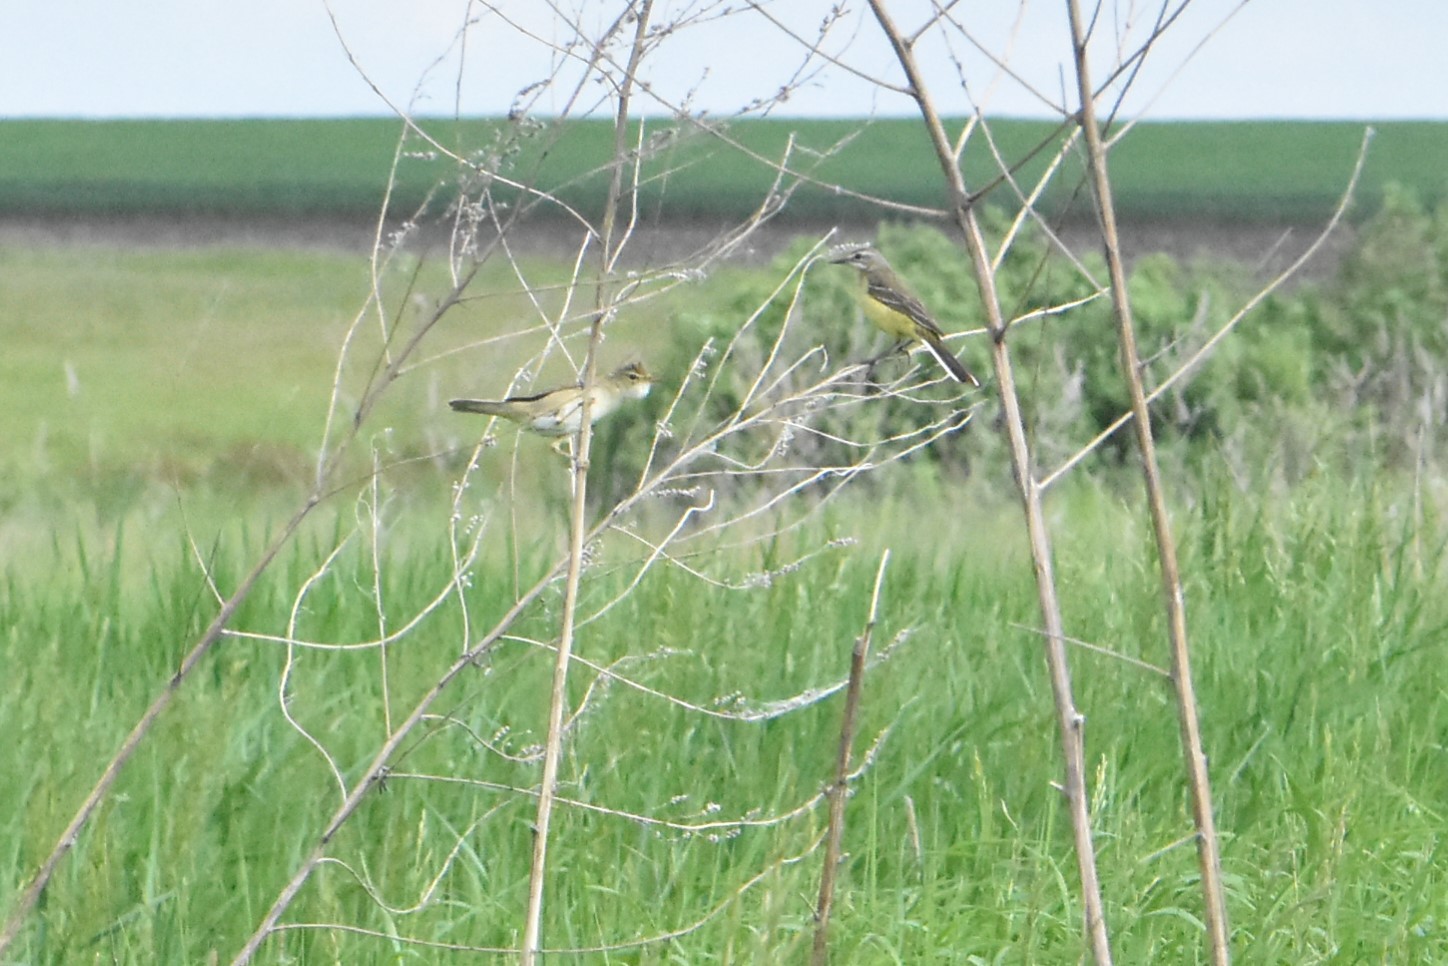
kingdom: Animalia
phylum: Chordata
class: Aves
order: Passeriformes
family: Motacillidae
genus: Motacilla
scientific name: Motacilla flava
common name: Western yellow wagtail
